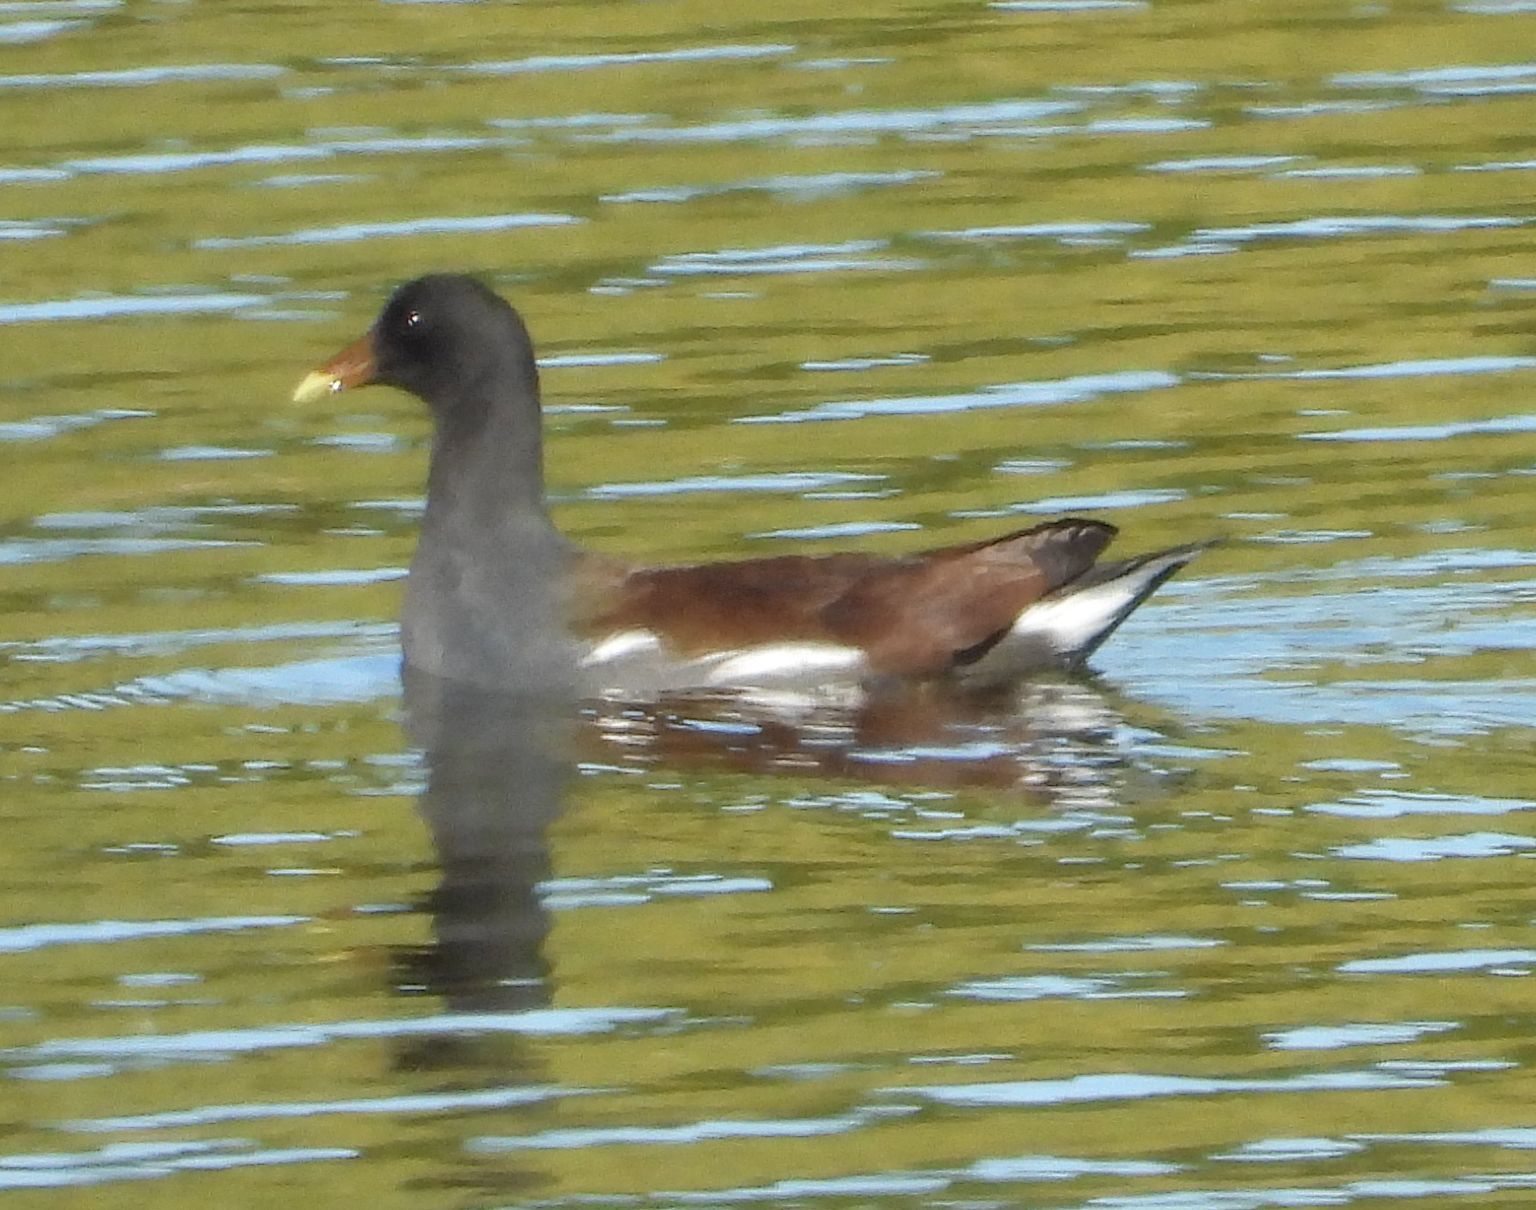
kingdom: Animalia
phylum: Chordata
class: Aves
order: Gruiformes
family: Rallidae
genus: Gallinula
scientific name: Gallinula chloropus
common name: Common moorhen
